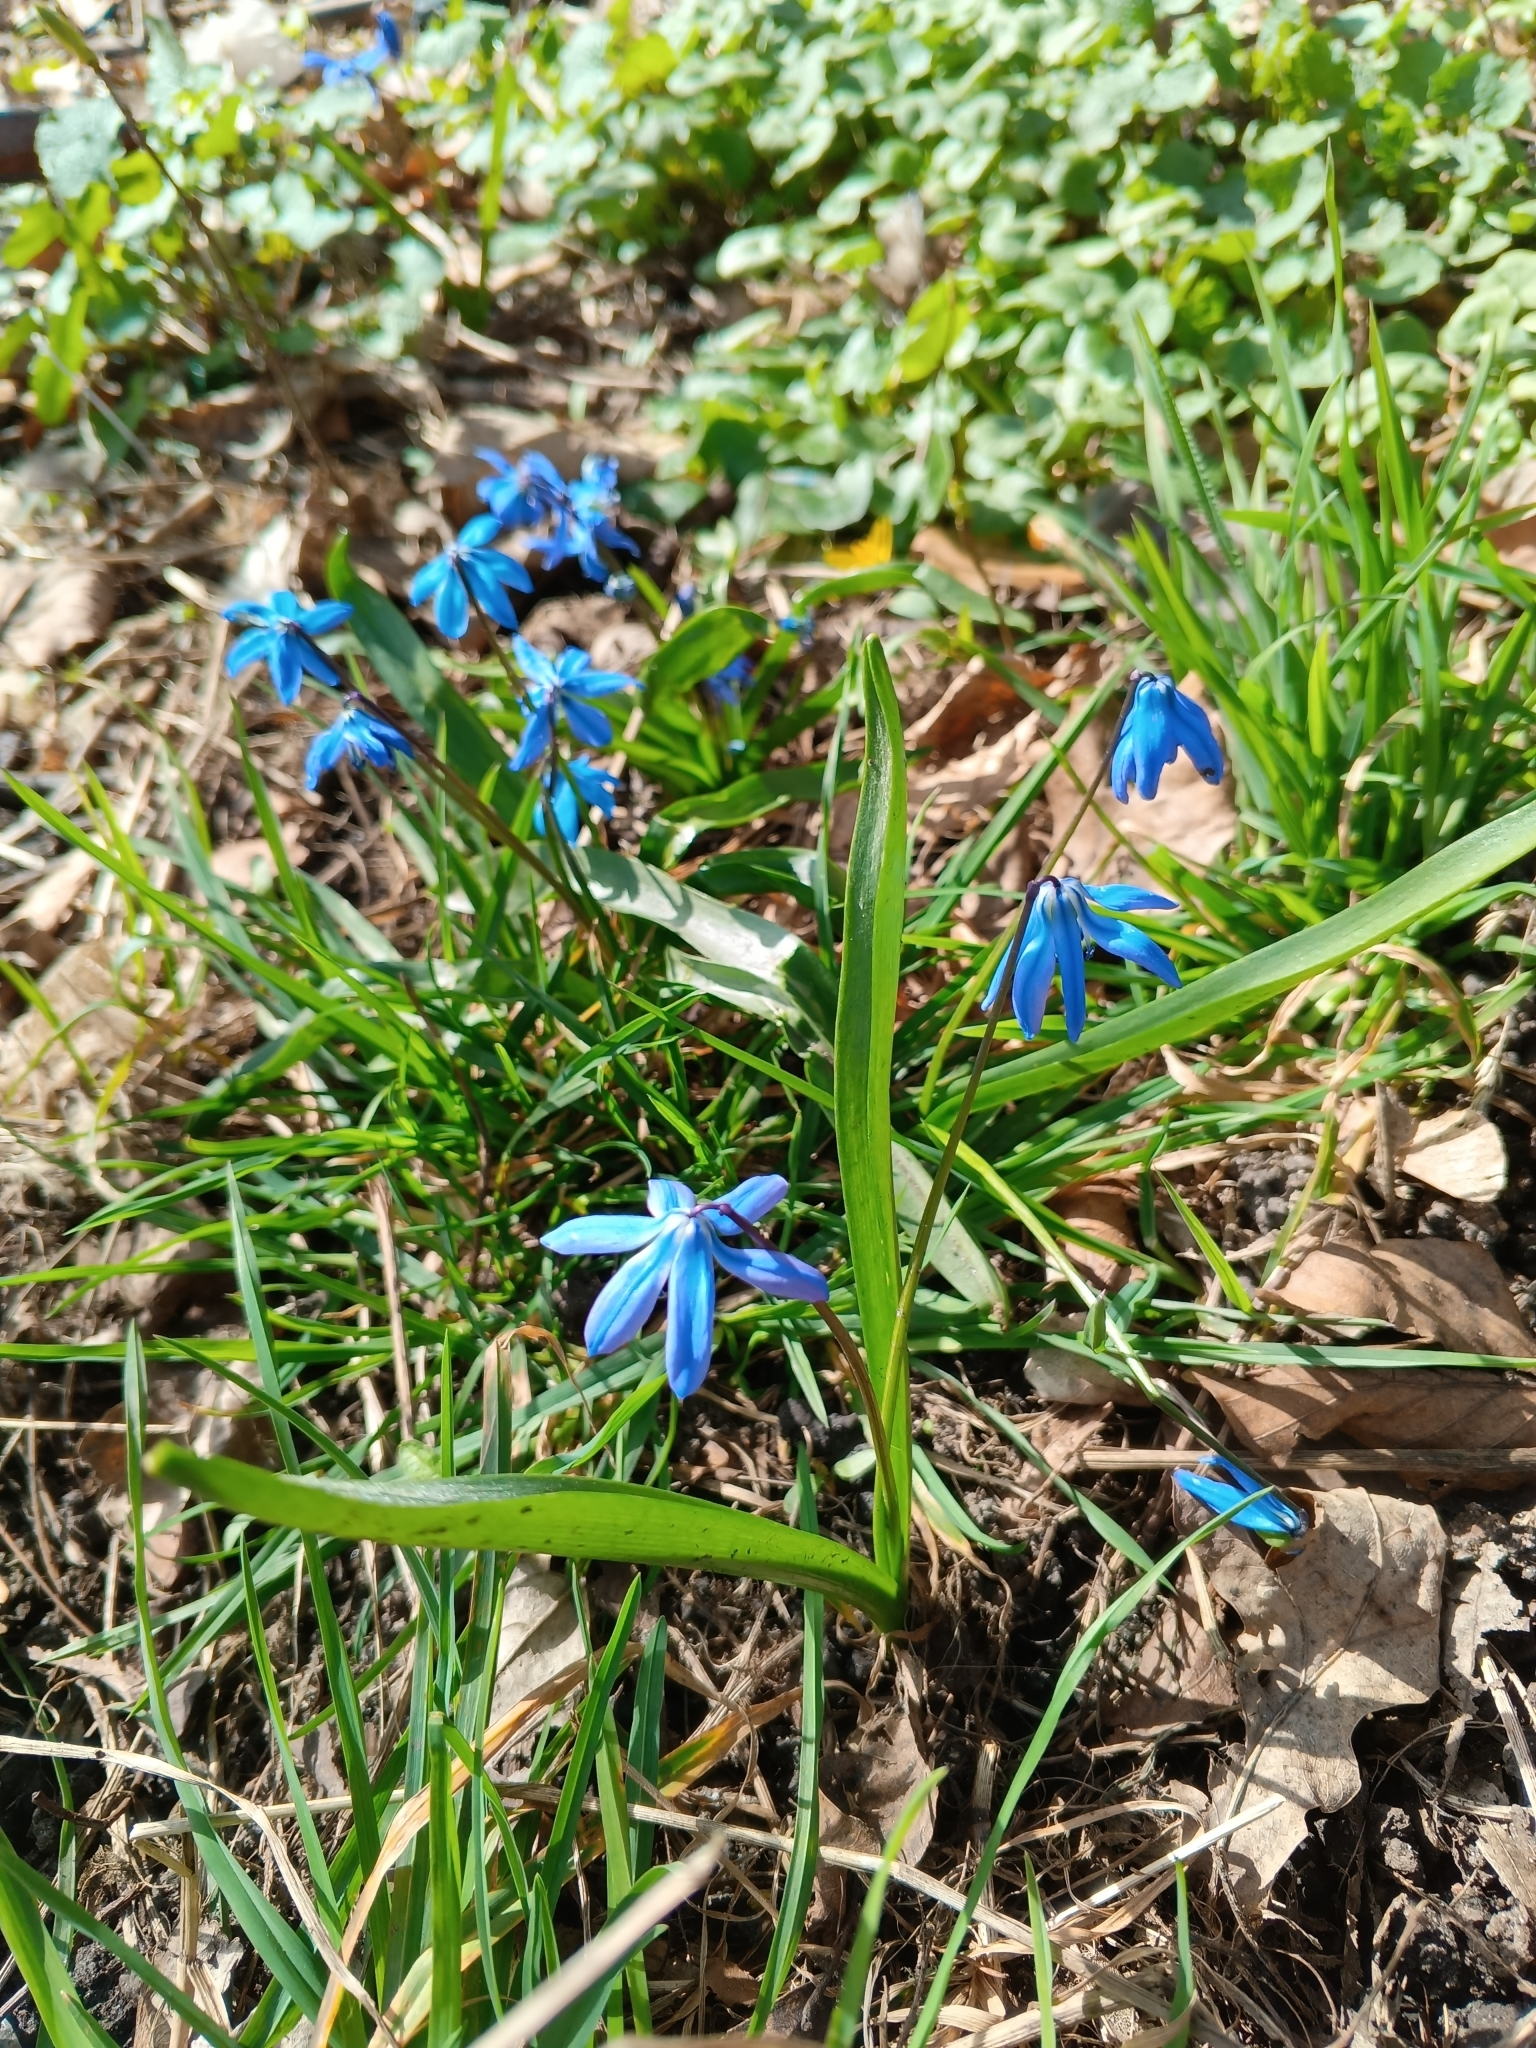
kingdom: Plantae
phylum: Tracheophyta
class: Liliopsida
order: Asparagales
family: Asparagaceae
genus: Scilla
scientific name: Scilla siberica
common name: Siberian squill
